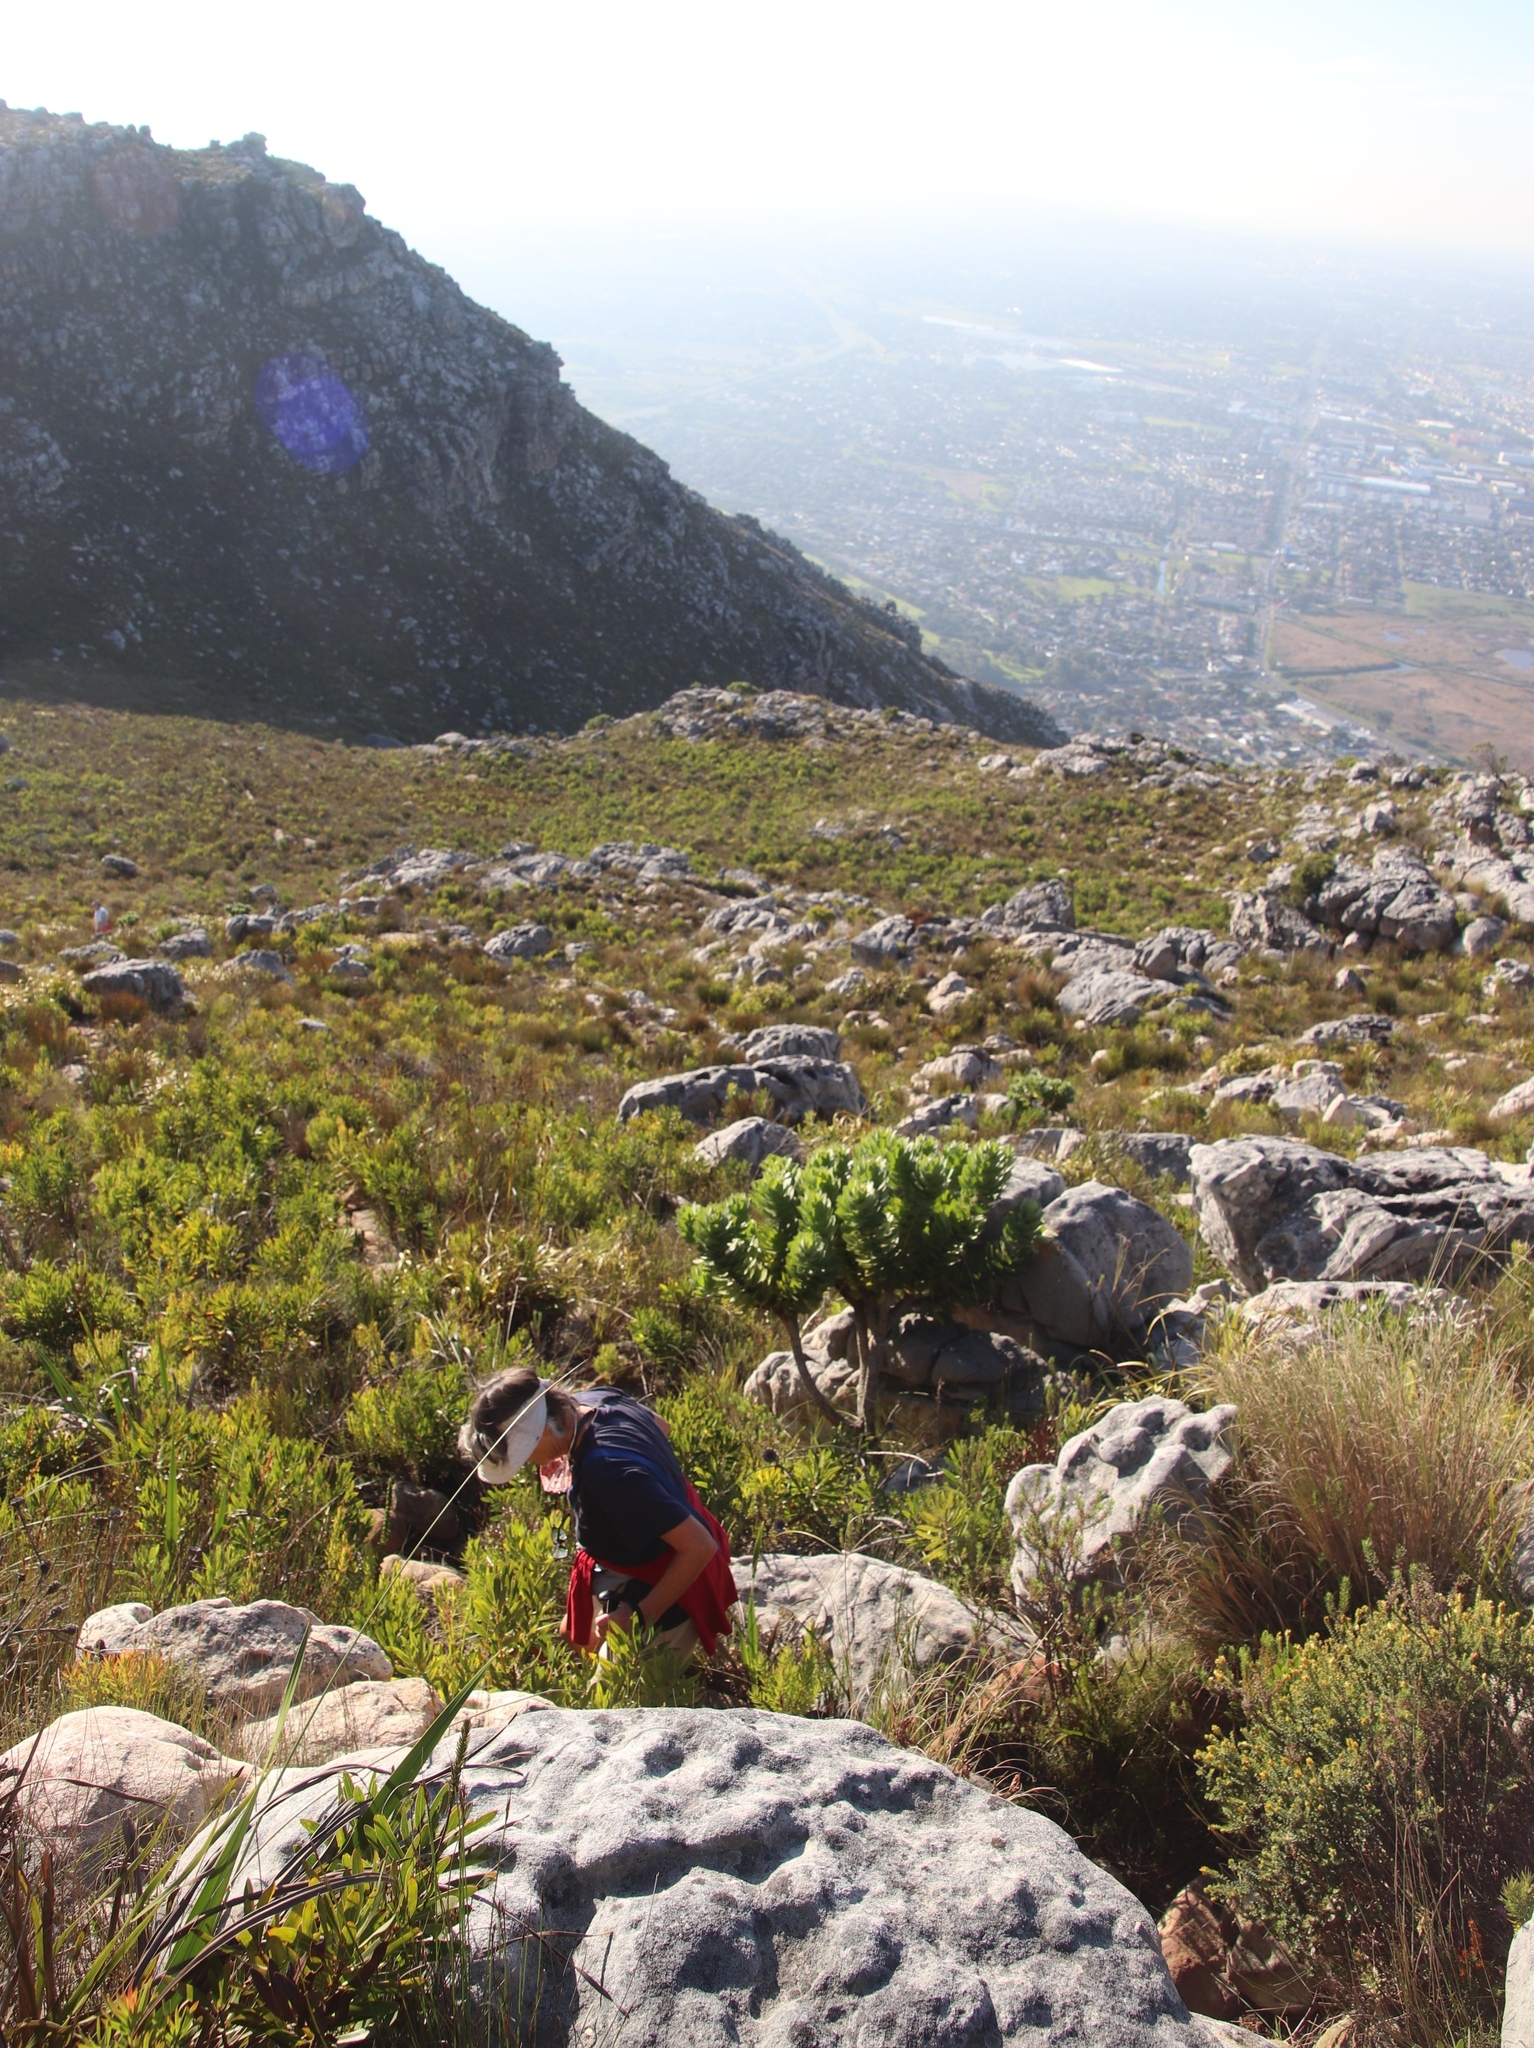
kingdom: Plantae
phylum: Tracheophyta
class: Magnoliopsida
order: Proteales
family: Proteaceae
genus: Leucospermum
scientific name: Leucospermum conocarpodendron
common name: Tree pincushion
